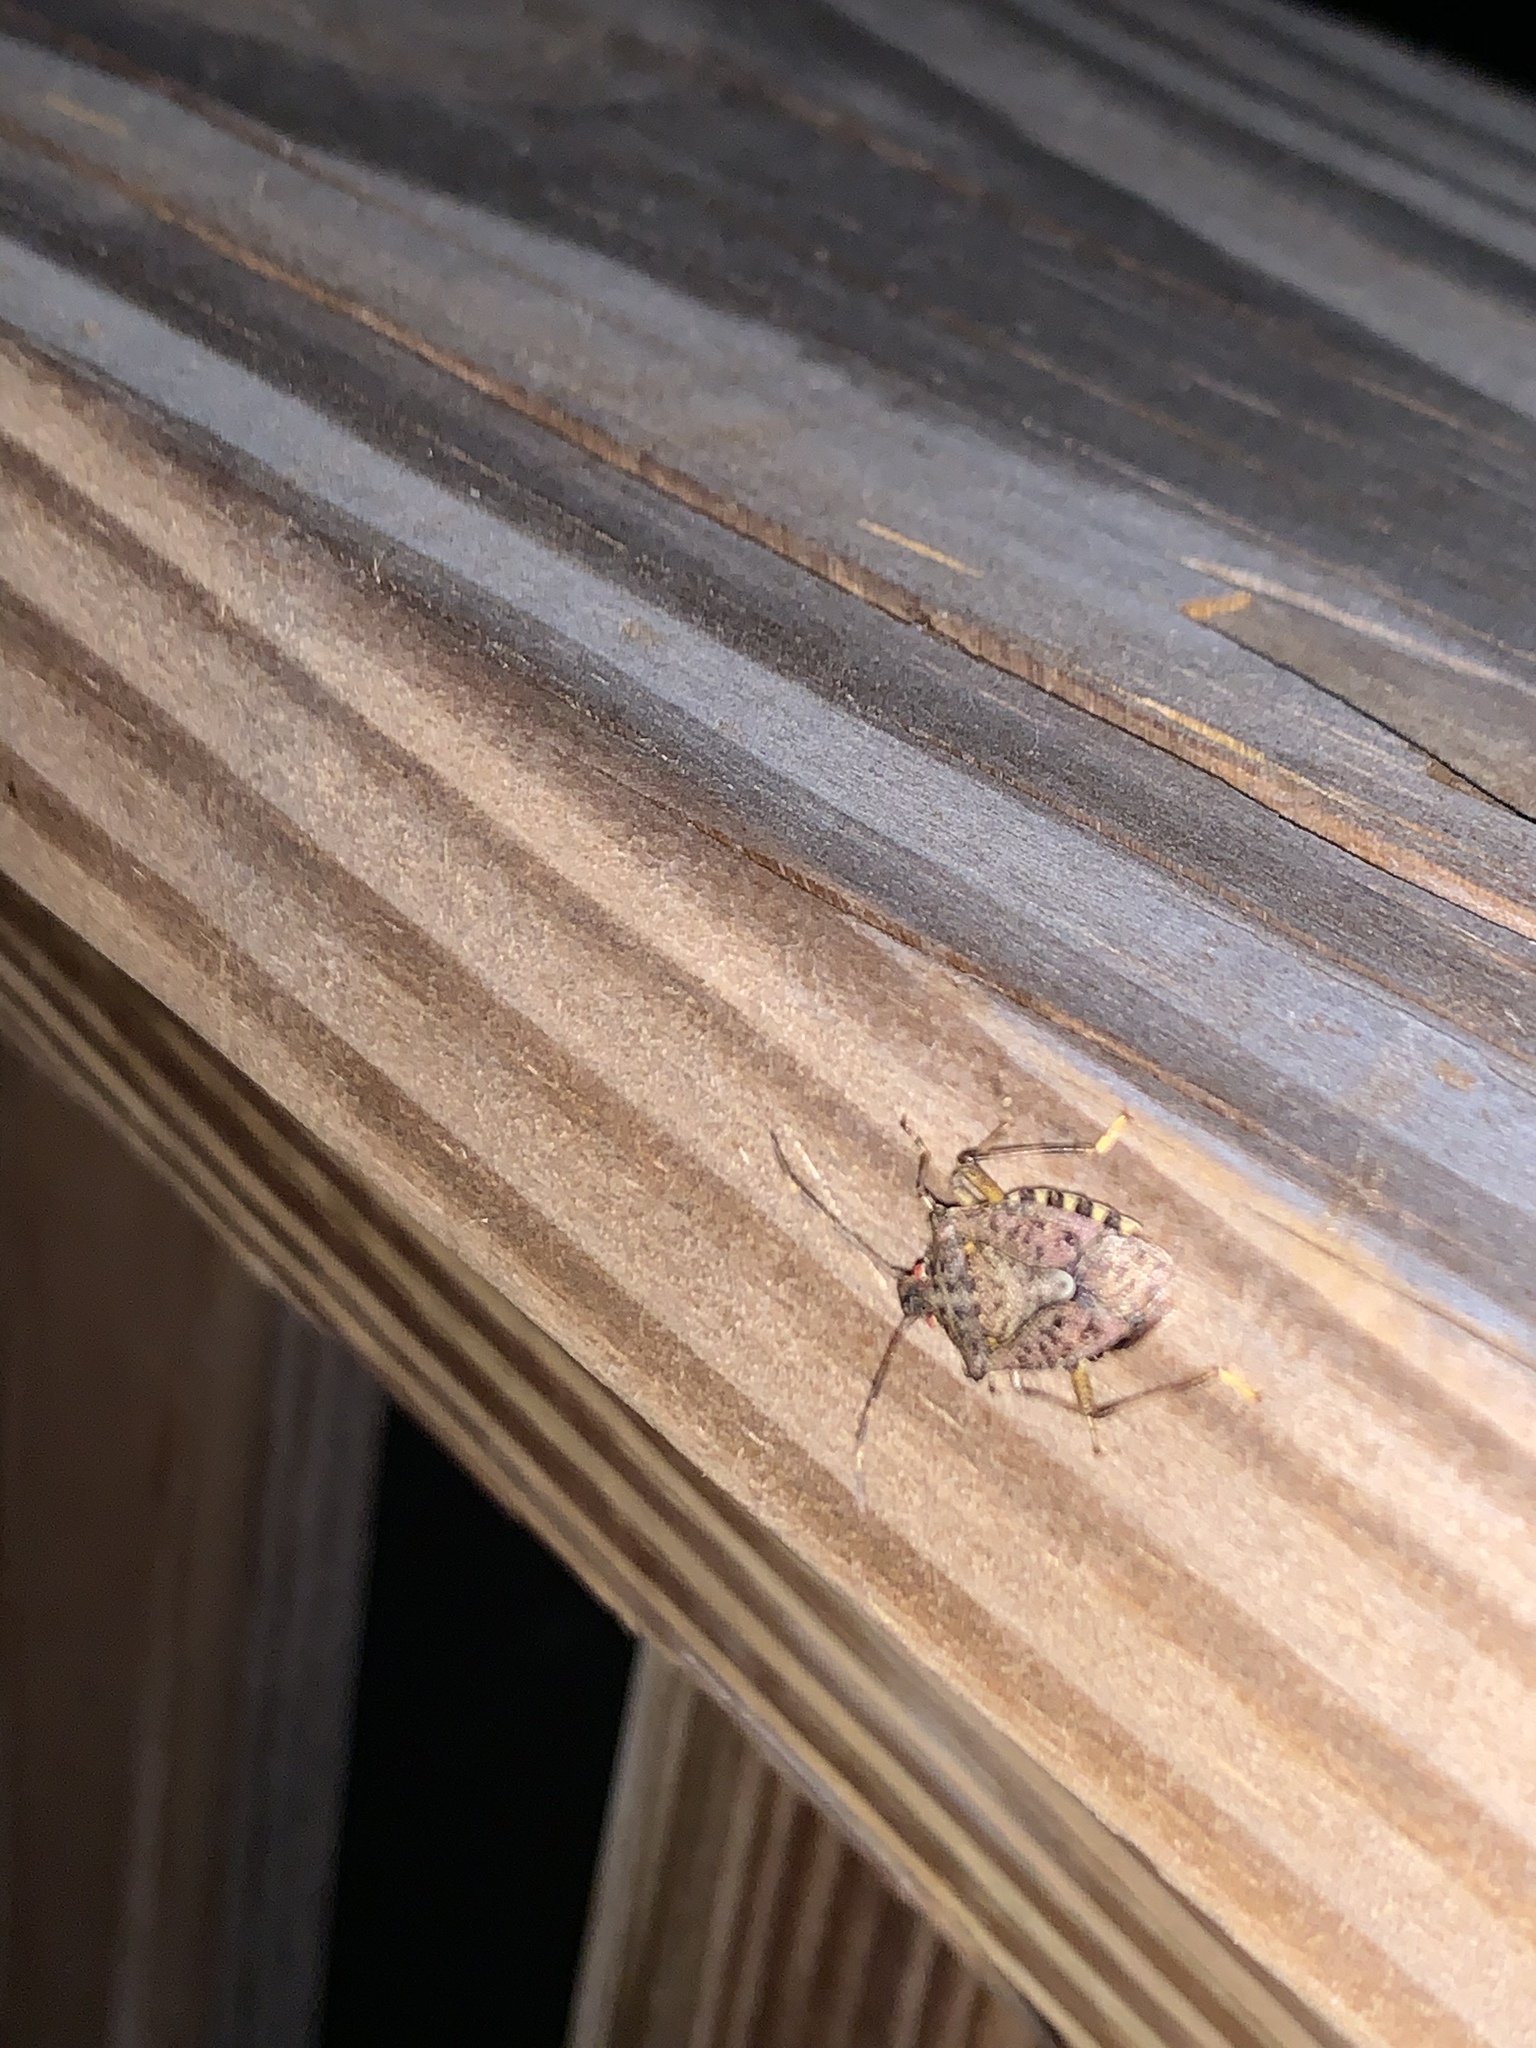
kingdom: Animalia
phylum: Arthropoda
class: Insecta
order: Hemiptera
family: Pentatomidae
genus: Halyomorpha
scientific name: Halyomorpha halys
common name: Brown marmorated stink bug
